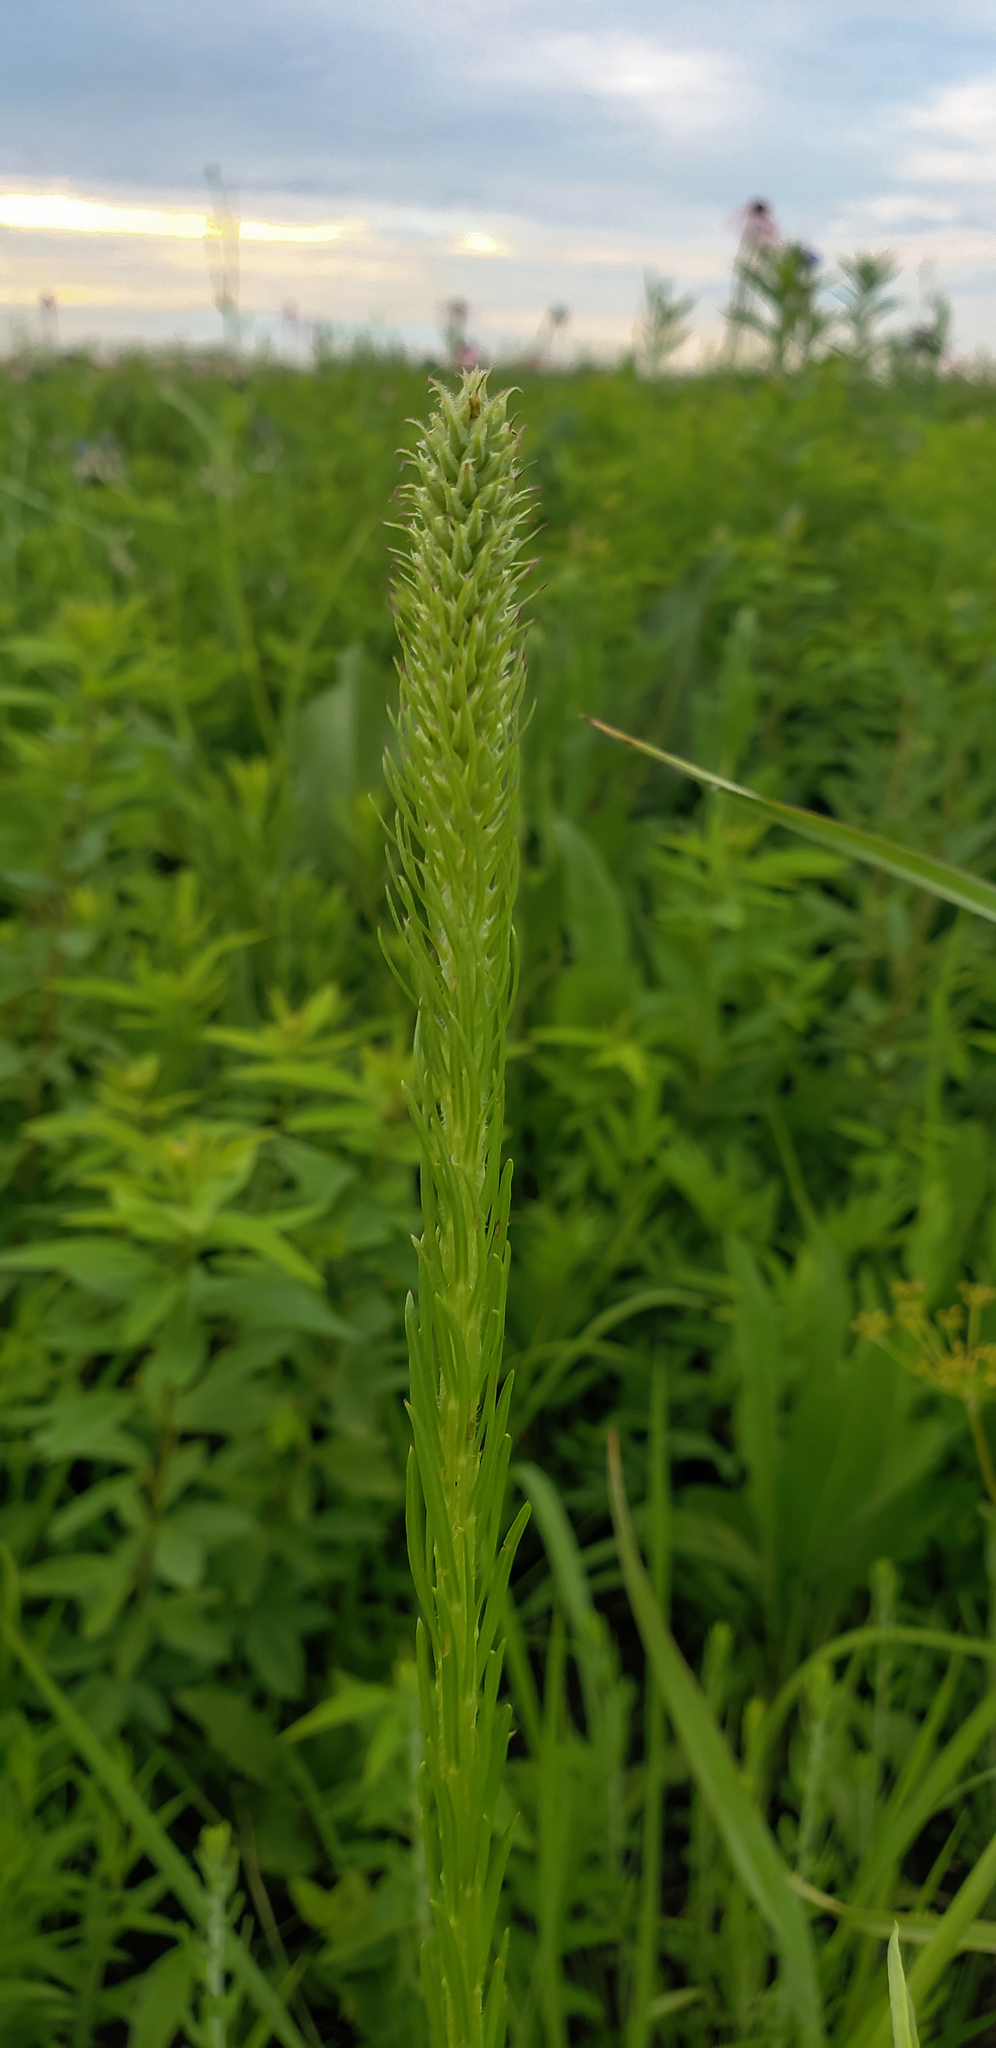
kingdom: Plantae
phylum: Tracheophyta
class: Magnoliopsida
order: Asterales
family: Asteraceae
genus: Liatris
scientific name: Liatris pycnostachya
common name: Cattail gayfeather
